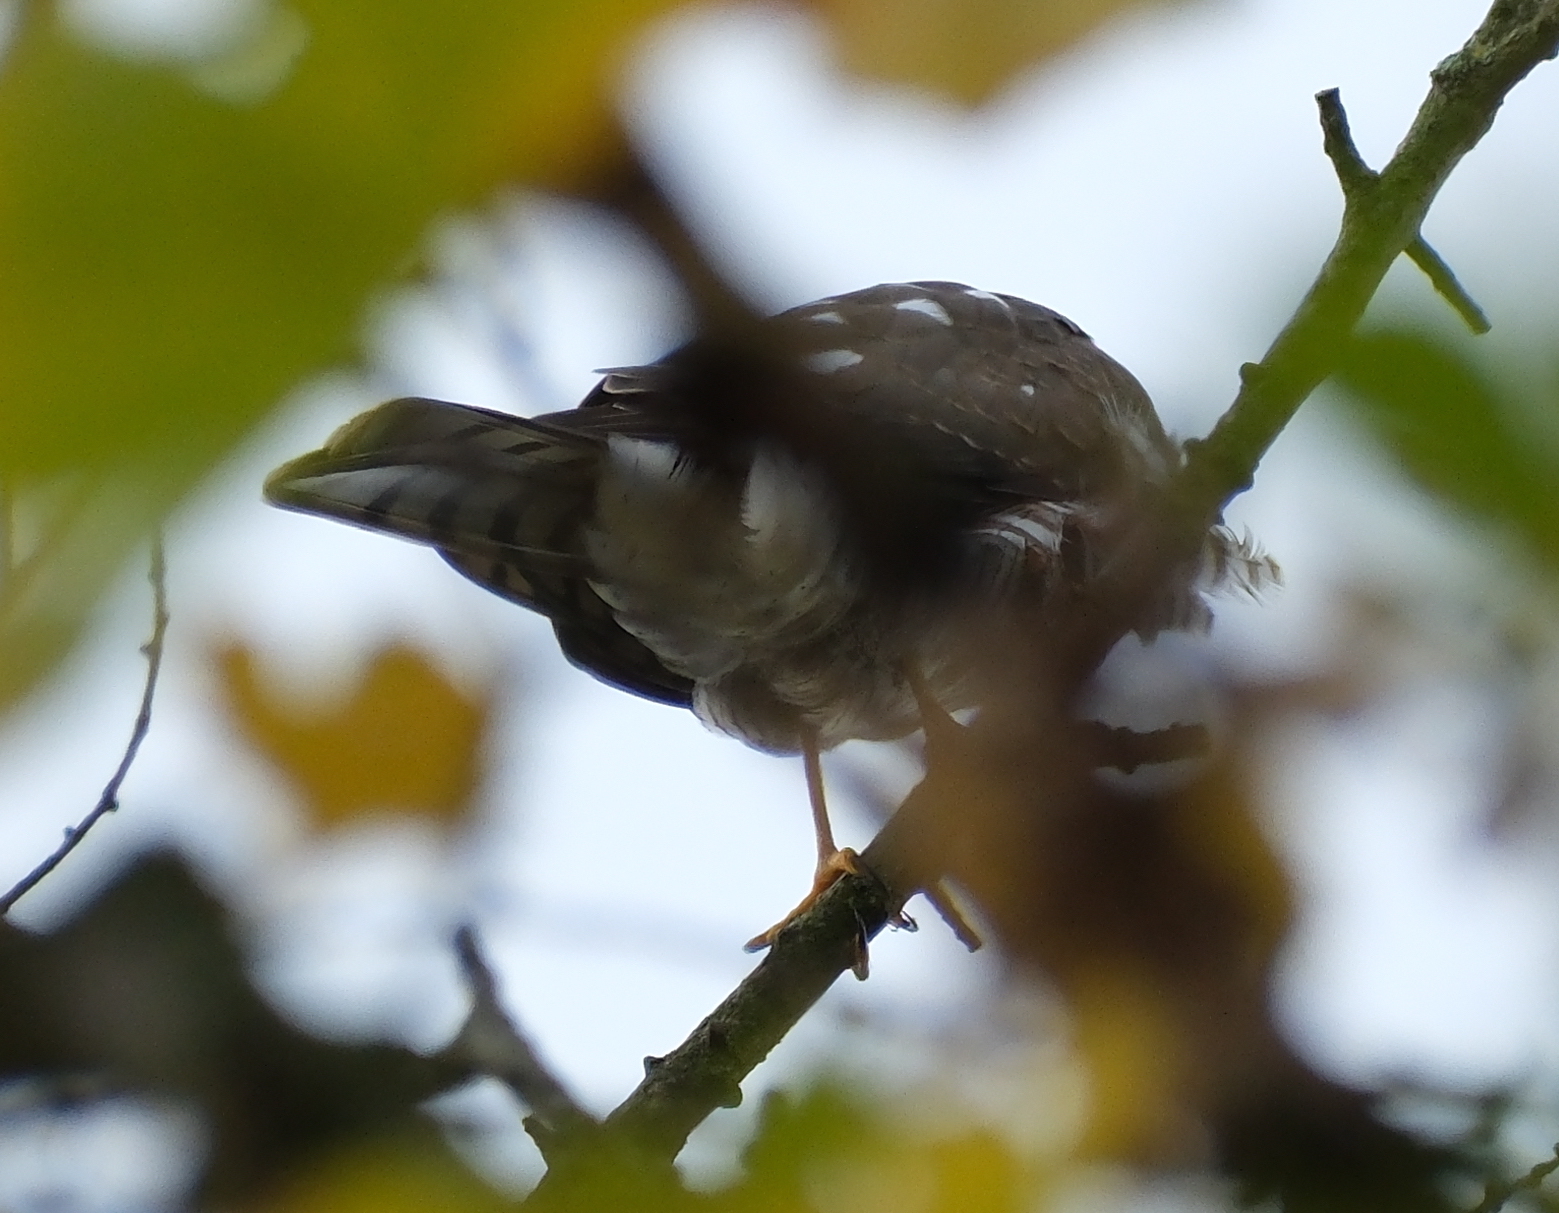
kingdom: Animalia
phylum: Chordata
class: Aves
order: Accipitriformes
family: Accipitridae
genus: Accipiter
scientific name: Accipiter nisus
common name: Eurasian sparrowhawk
